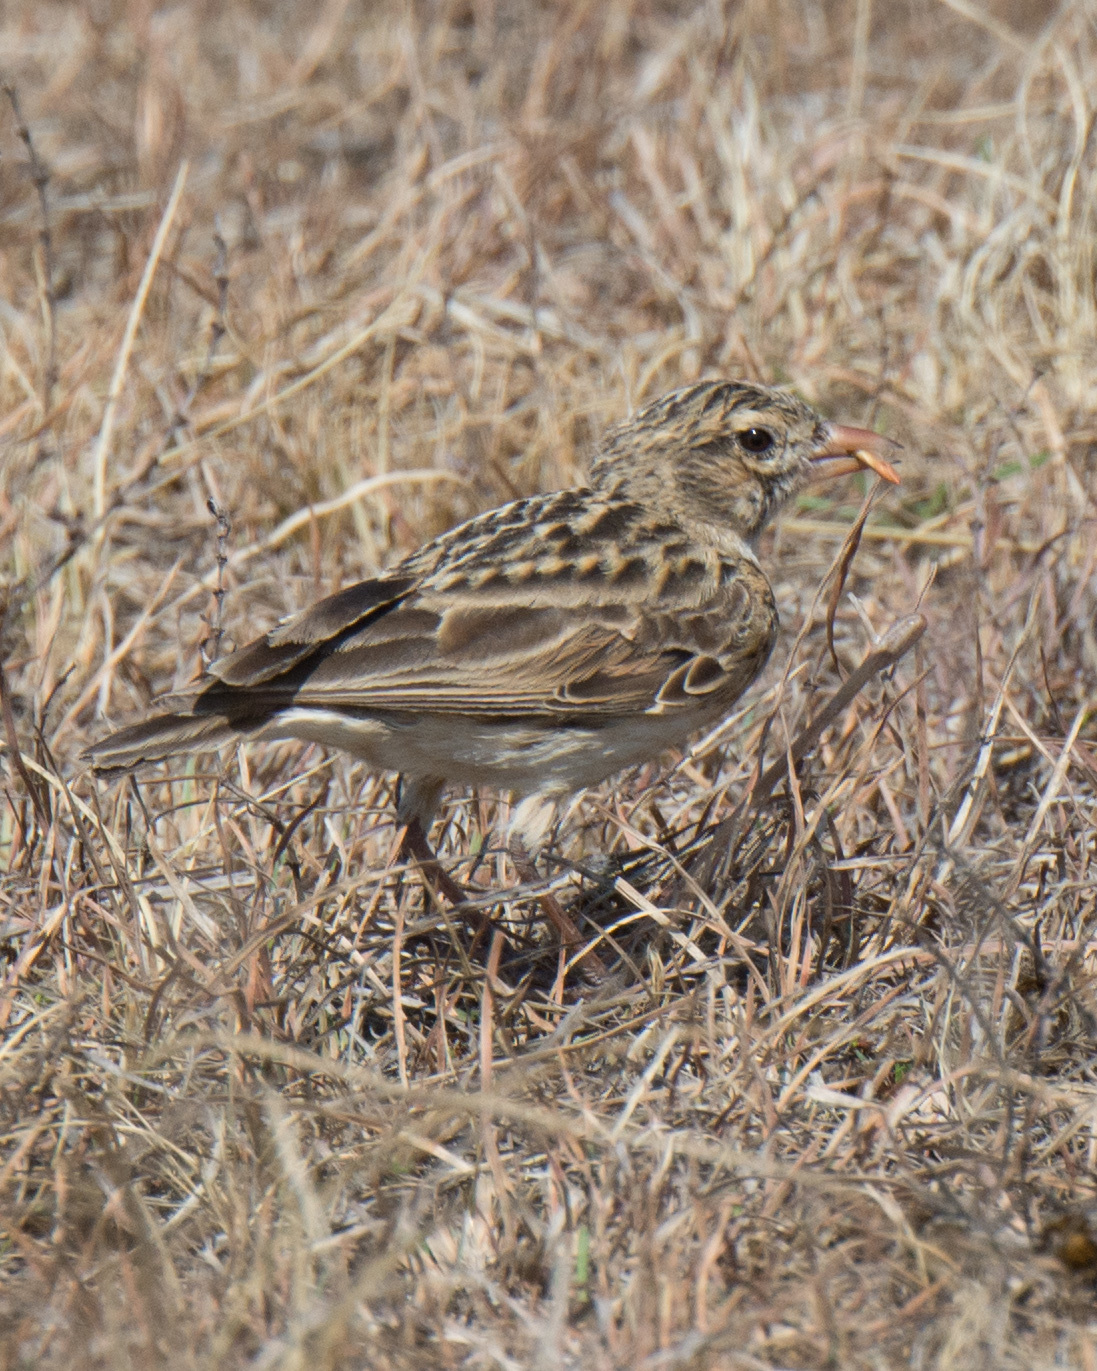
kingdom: Animalia
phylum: Chordata
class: Aves
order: Passeriformes
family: Alaudidae
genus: Spizocorys
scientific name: Spizocorys fringillaris
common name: Botha's lark
